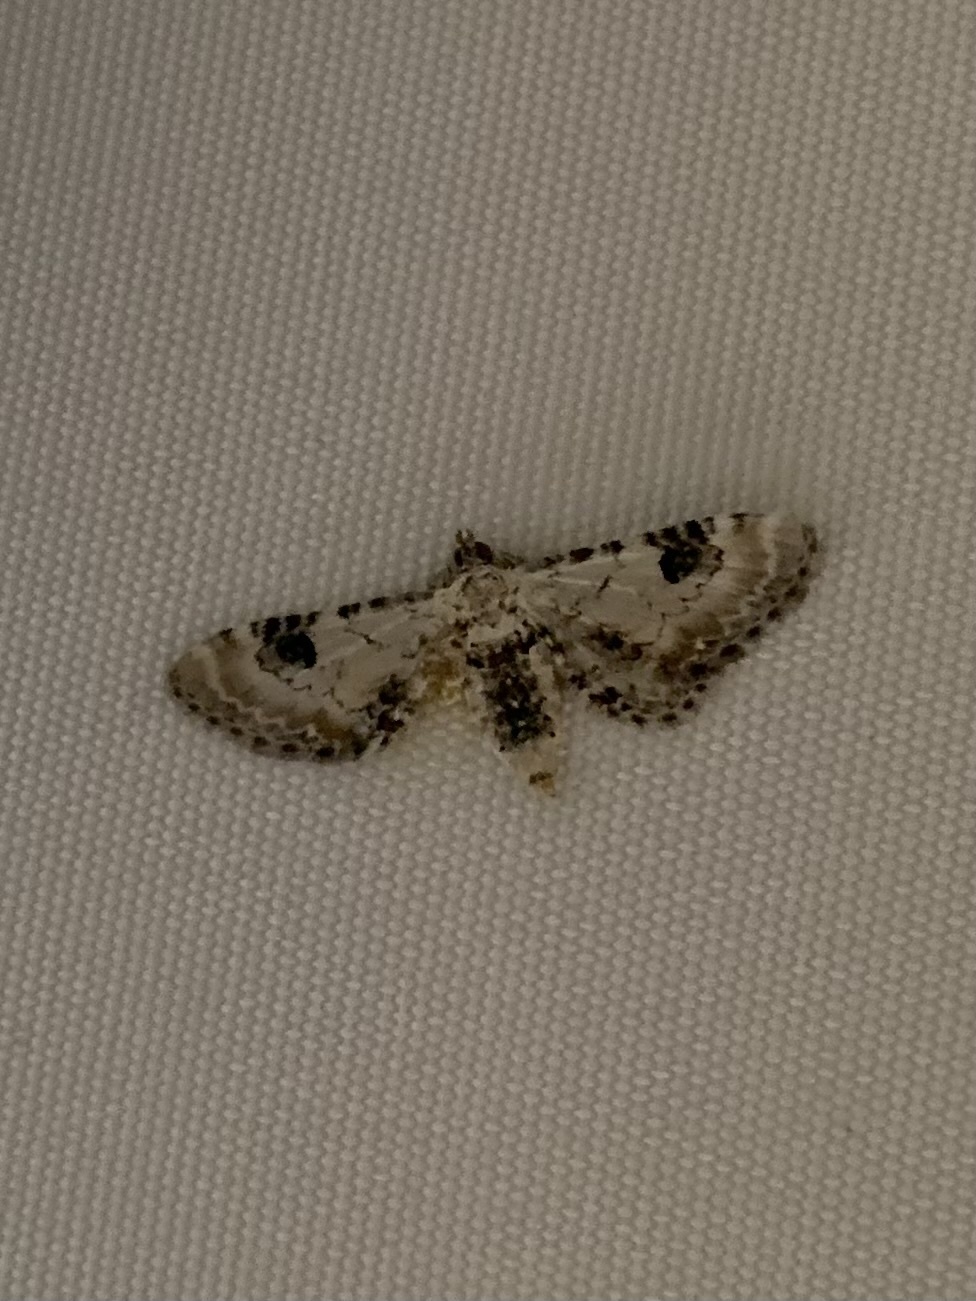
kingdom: Animalia
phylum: Arthropoda
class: Insecta
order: Lepidoptera
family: Geometridae
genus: Eupithecia
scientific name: Eupithecia centaureata
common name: Lime-speck pug
